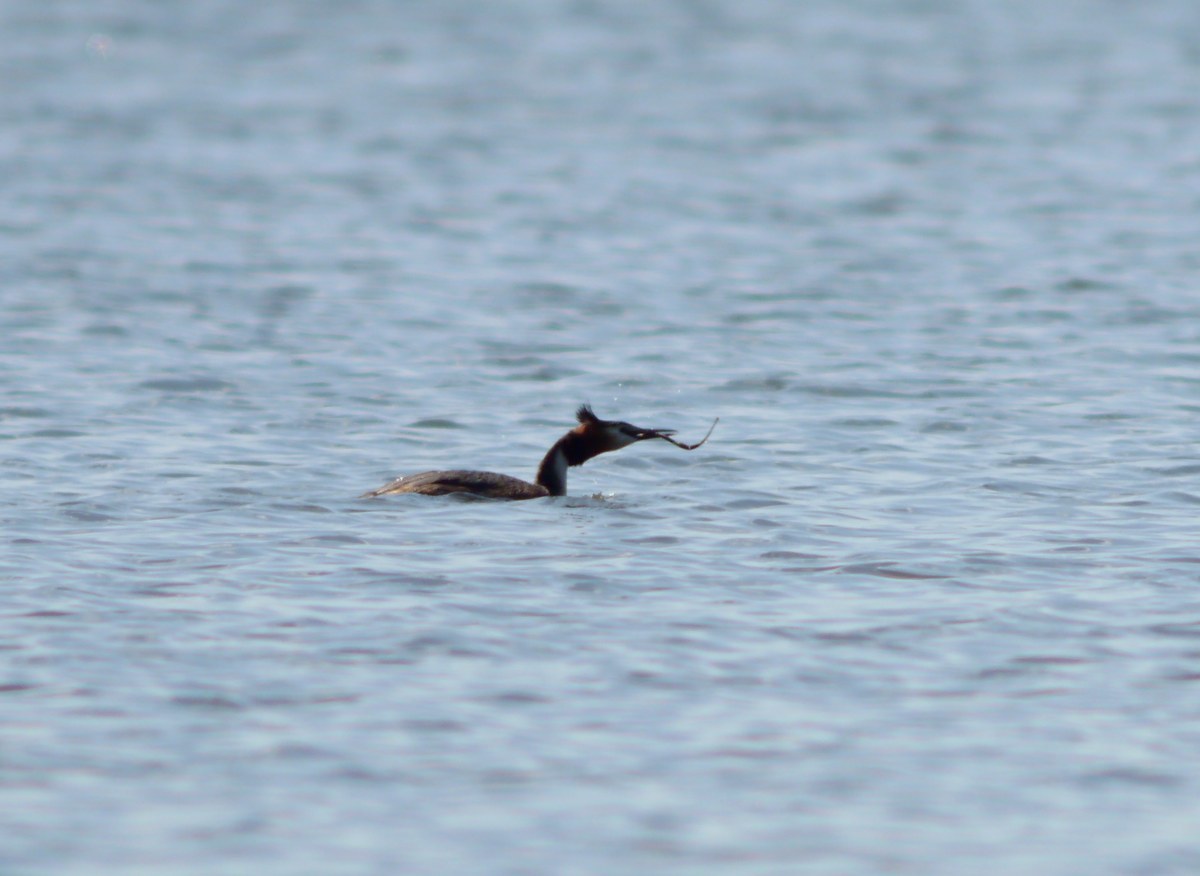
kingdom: Animalia
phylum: Chordata
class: Aves
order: Podicipediformes
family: Podicipedidae
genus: Podiceps
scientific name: Podiceps cristatus
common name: Great crested grebe
